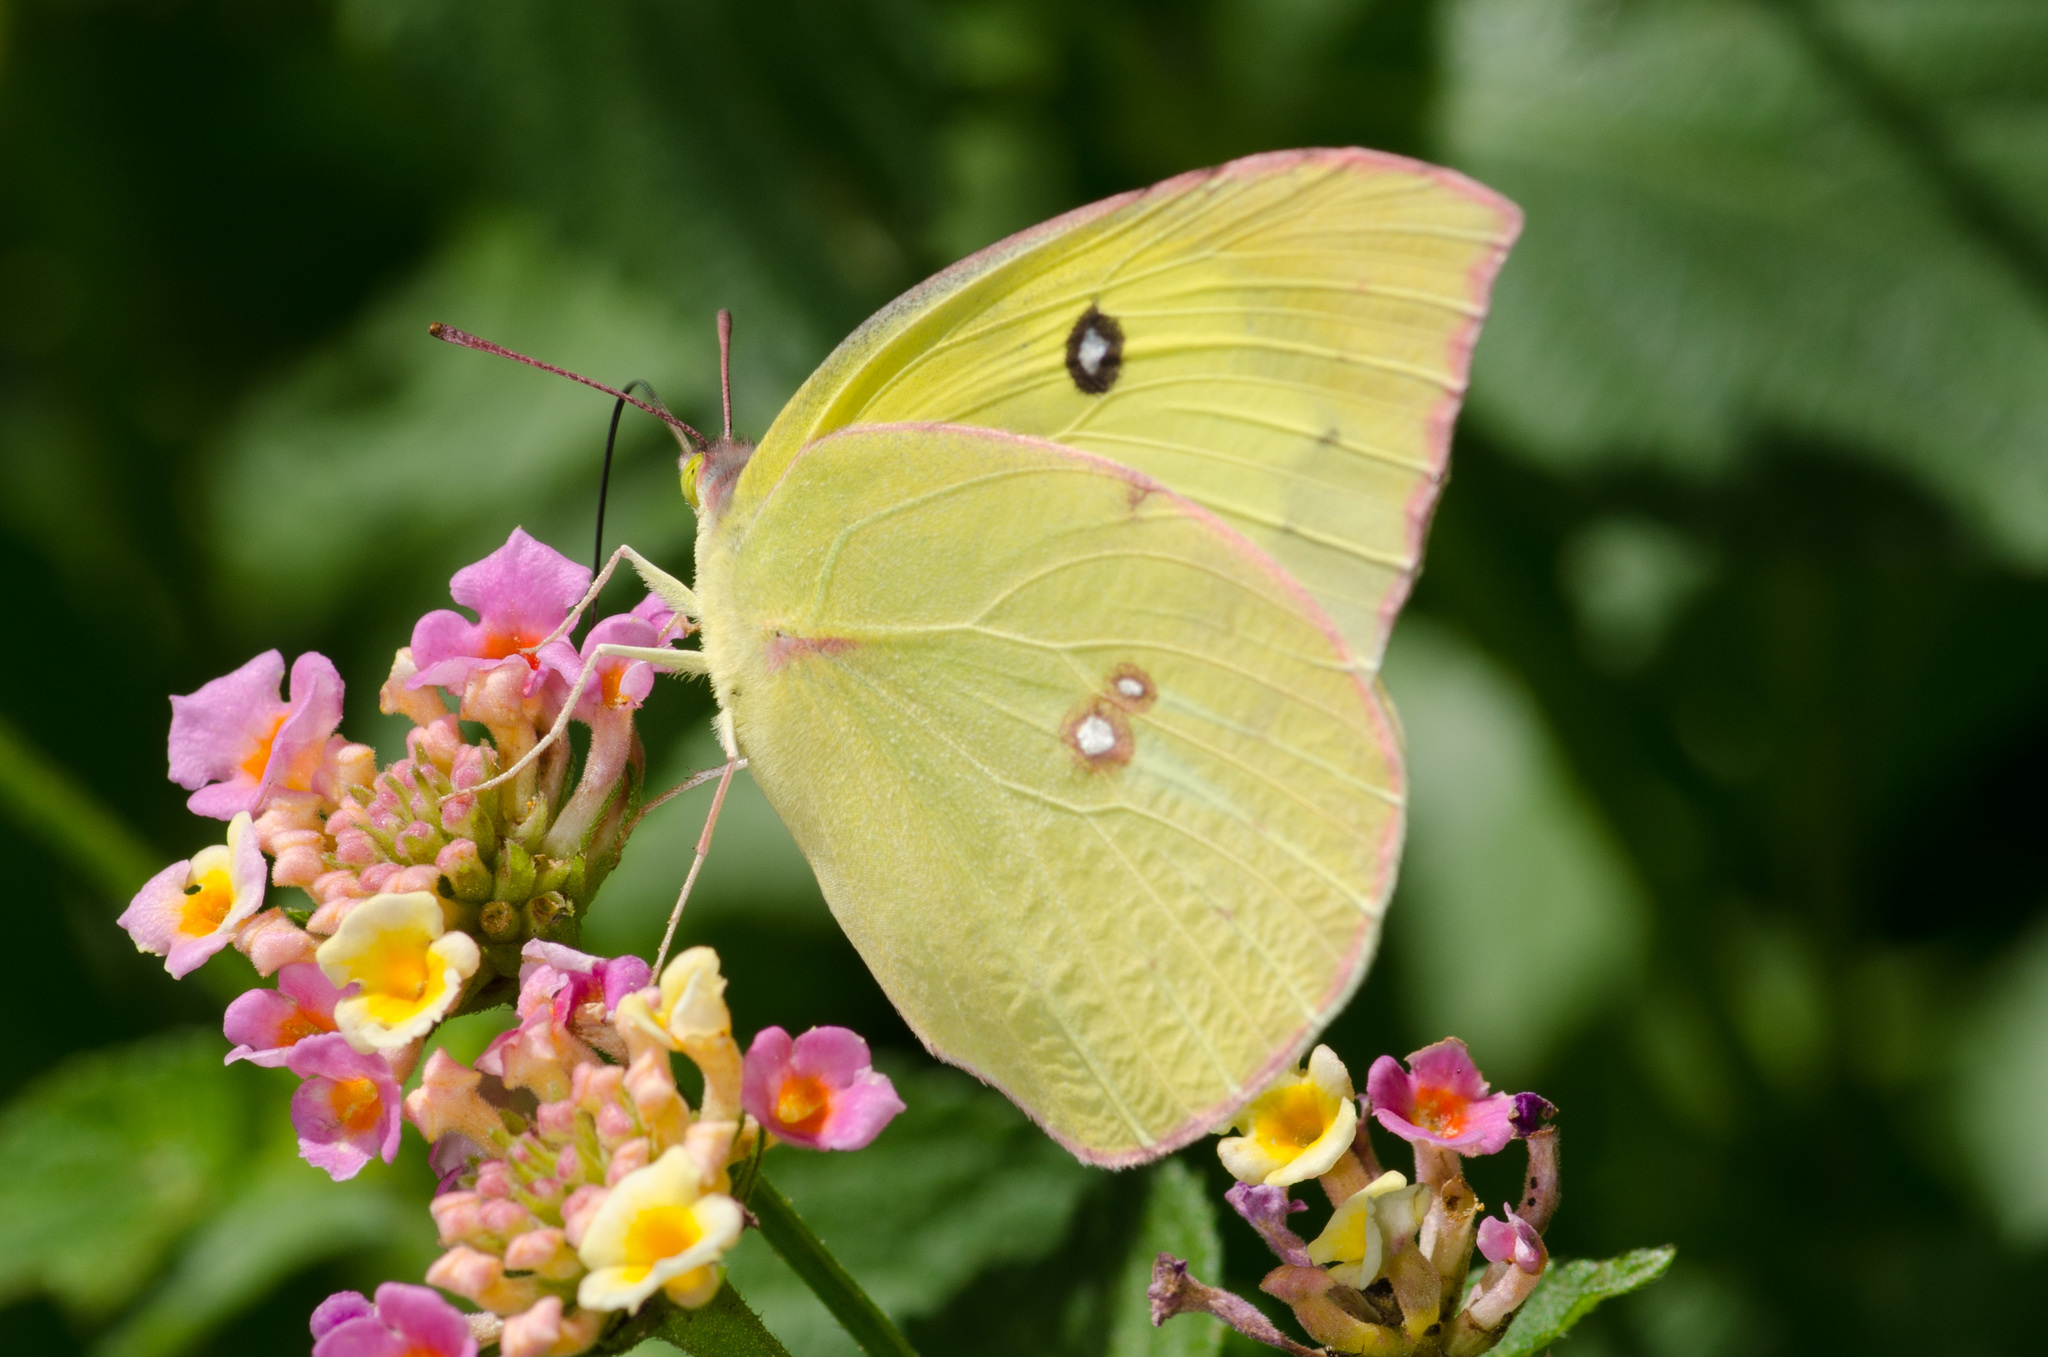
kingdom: Animalia
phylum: Arthropoda
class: Insecta
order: Lepidoptera
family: Pieridae
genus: Zerene
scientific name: Zerene cesonia
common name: Southern dogface
